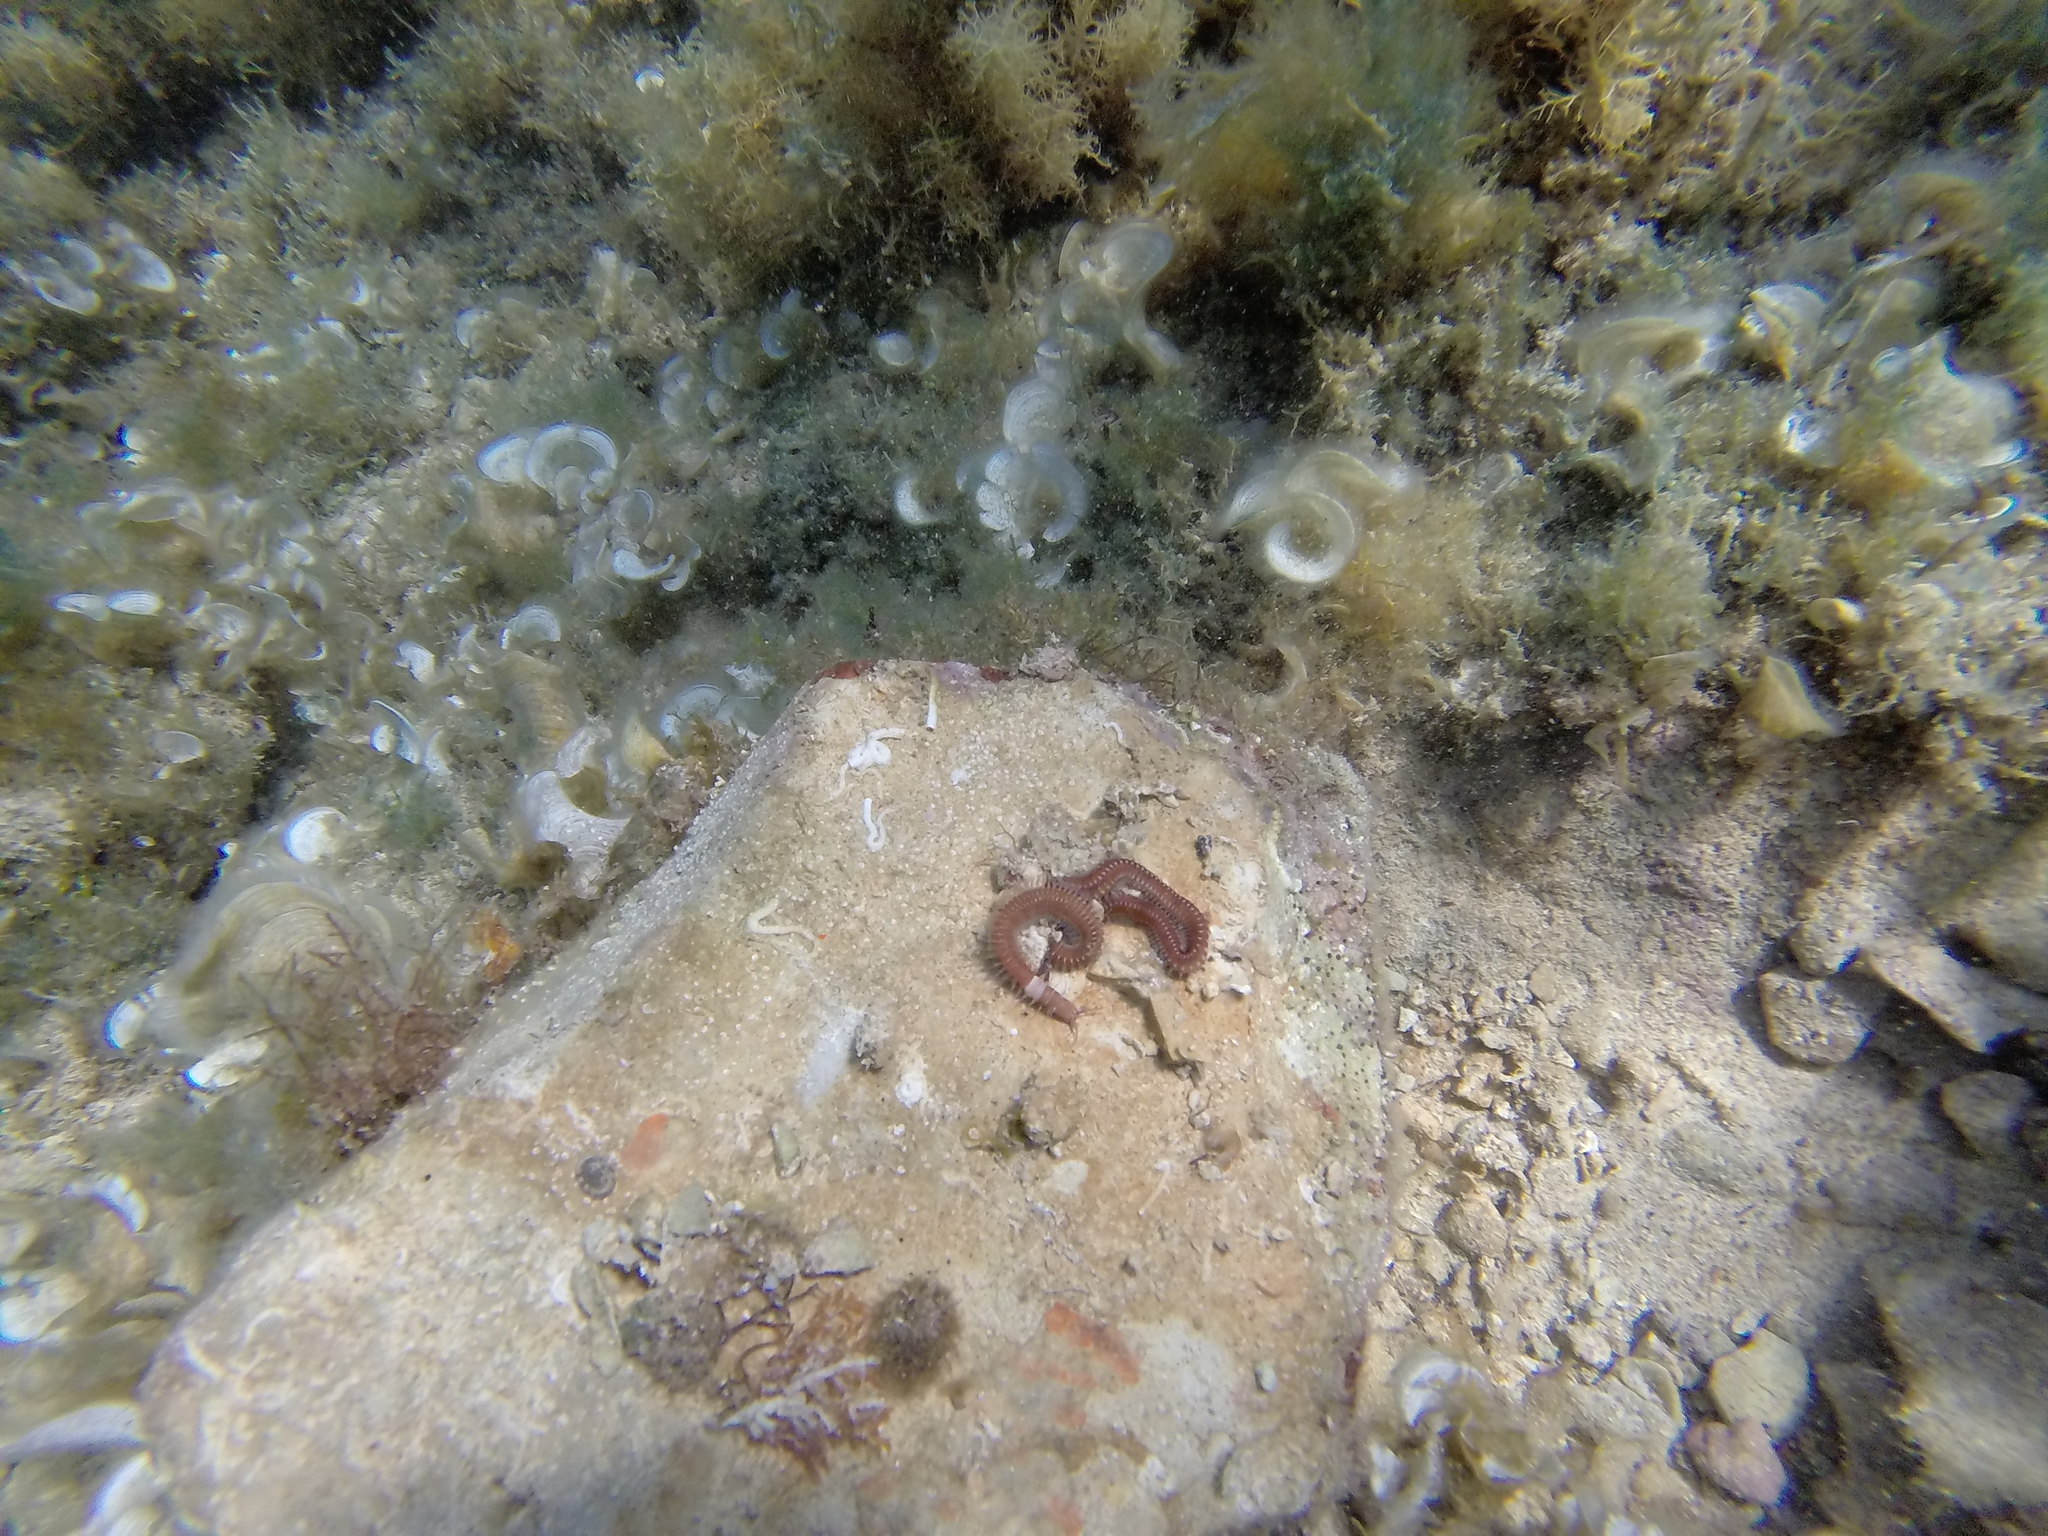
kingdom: Animalia
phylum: Annelida
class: Polychaeta
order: Eunicida
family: Eunicidae
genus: Leodice
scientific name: Leodice torquata
